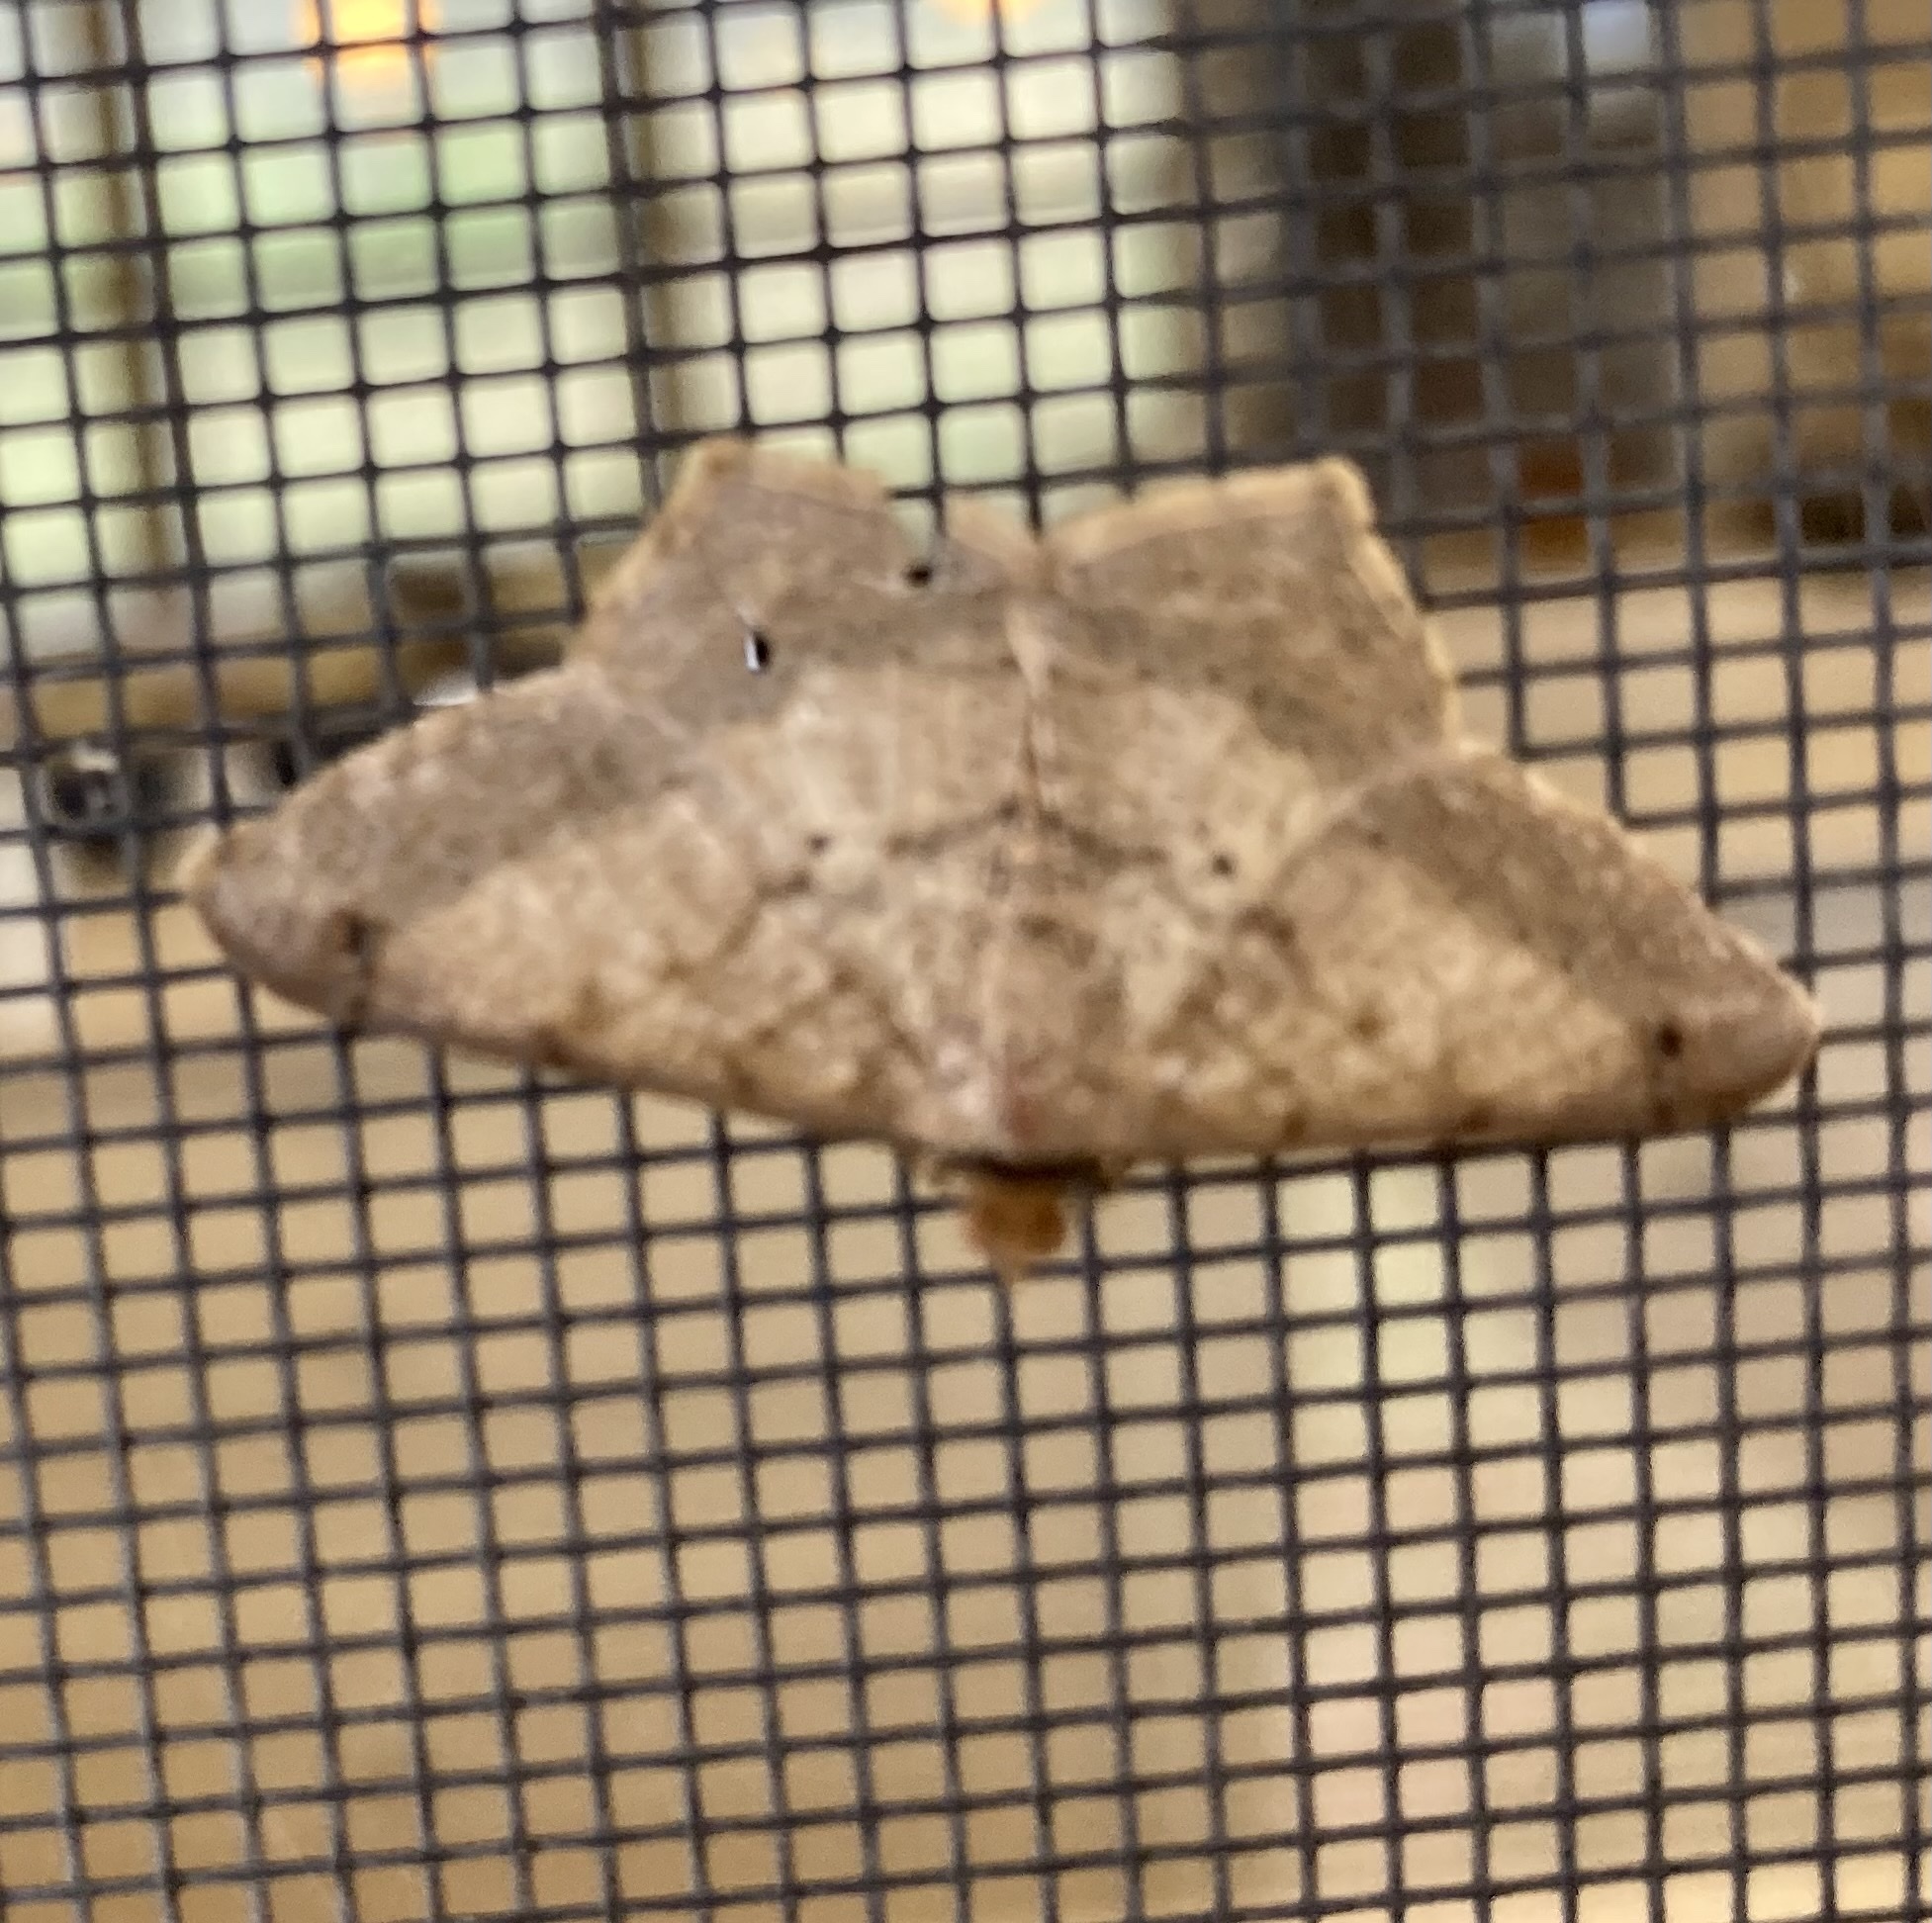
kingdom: Animalia
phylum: Arthropoda
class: Insecta
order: Lepidoptera
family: Geometridae
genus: Macaria
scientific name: Macaria abydata
